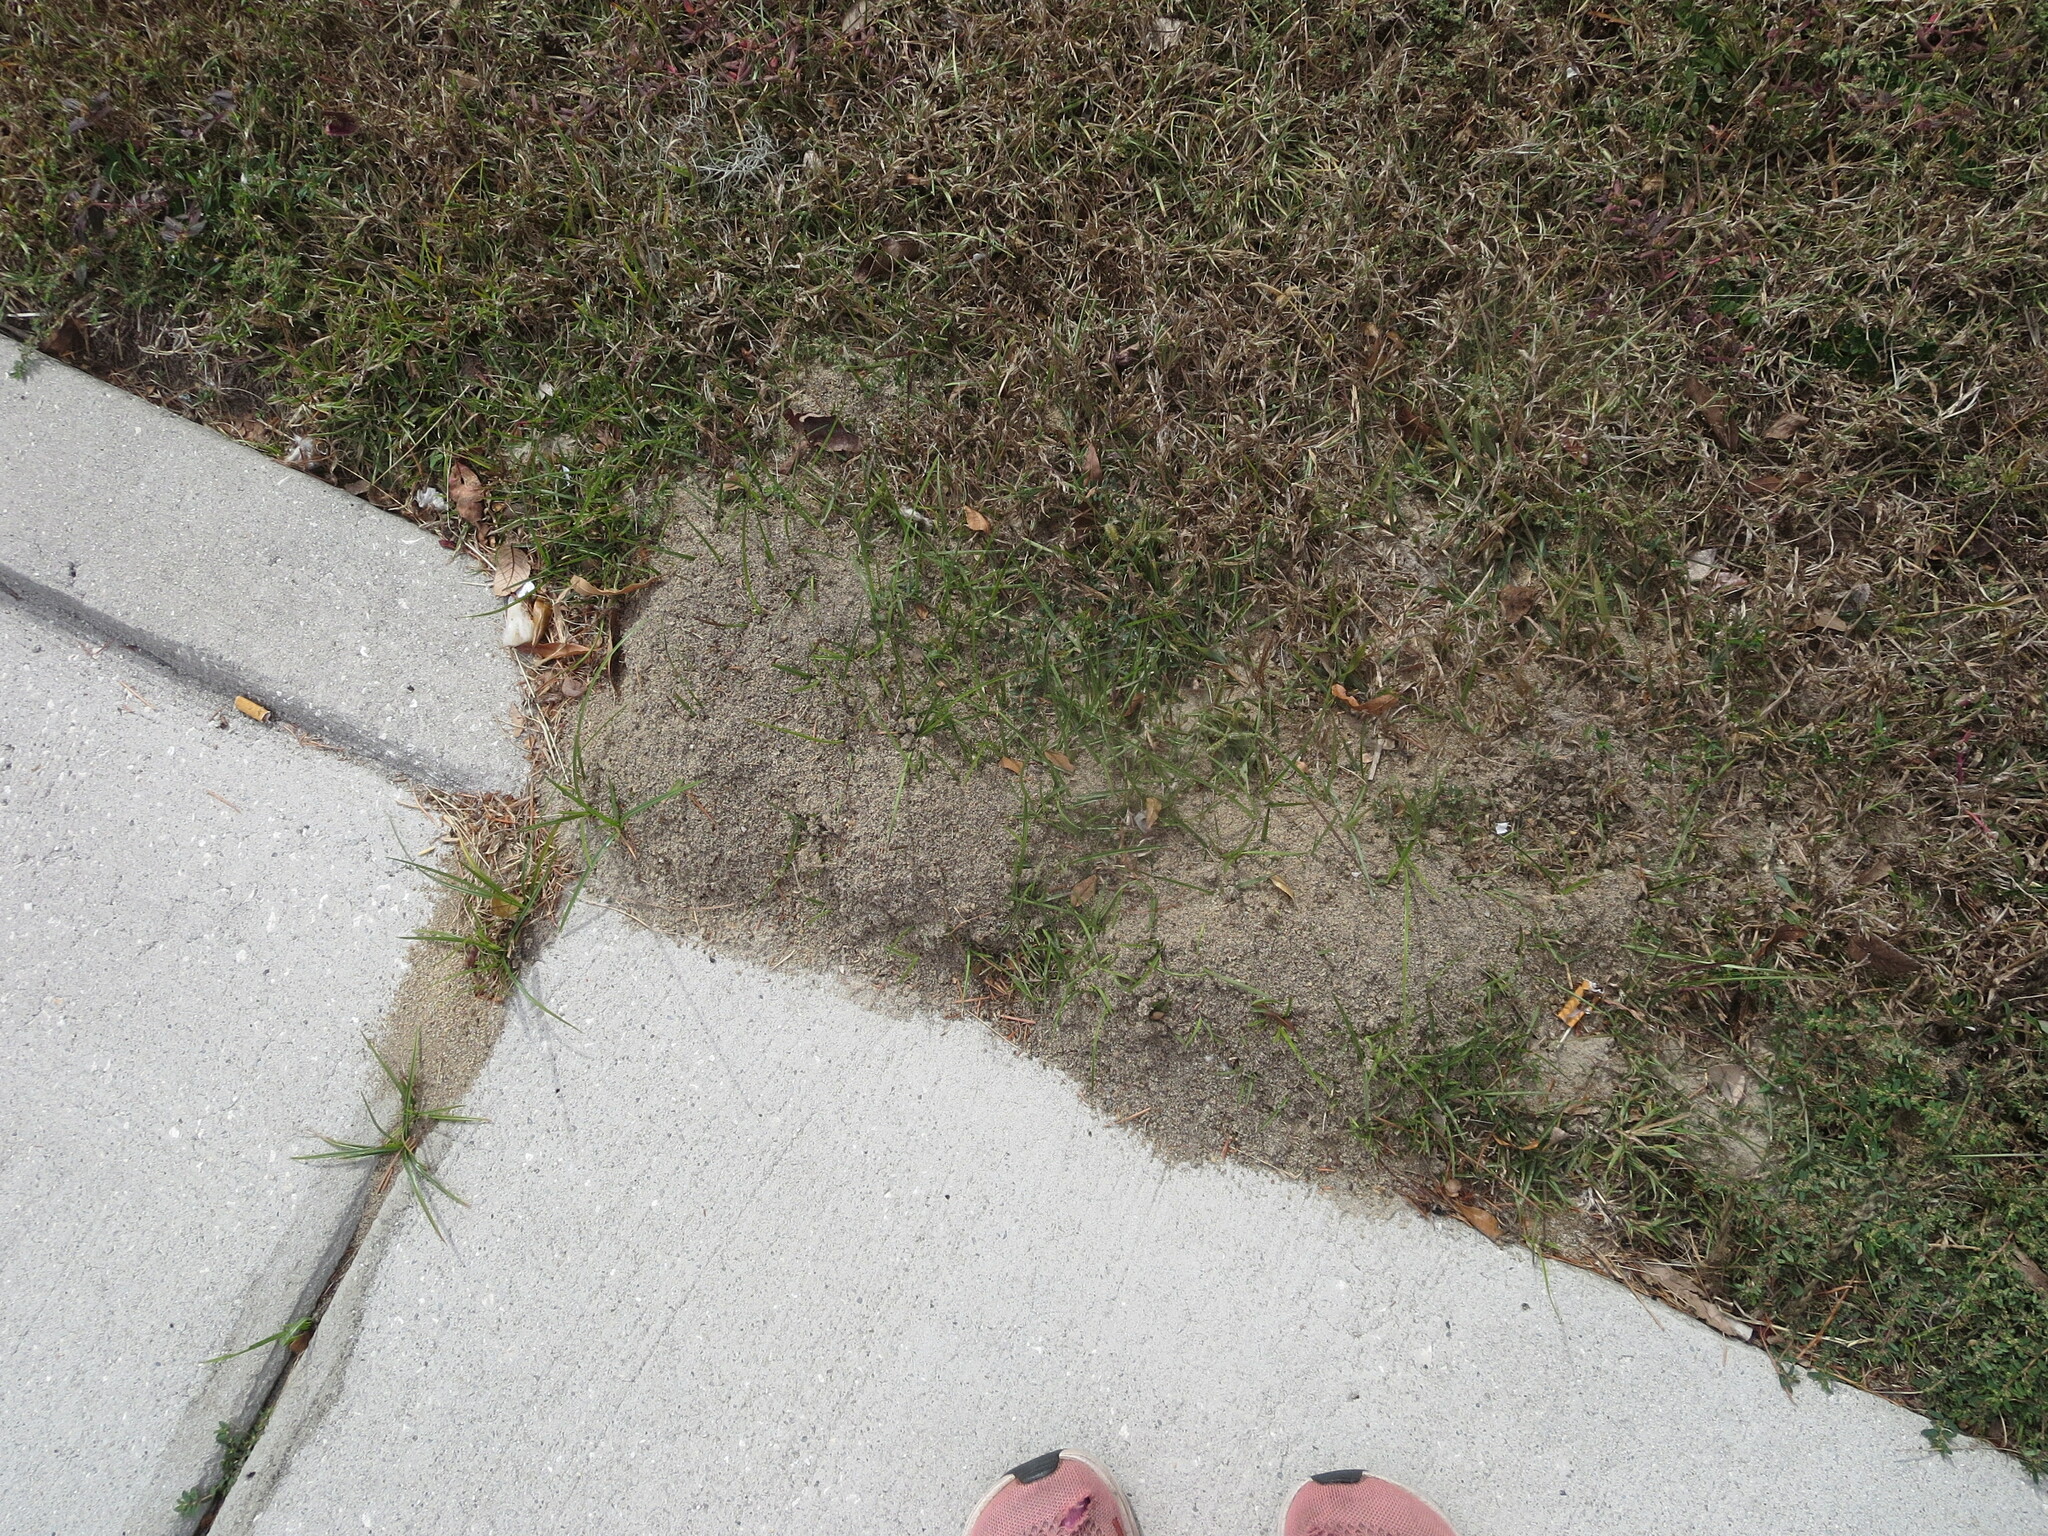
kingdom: Animalia
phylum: Arthropoda
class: Insecta
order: Hymenoptera
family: Formicidae
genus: Solenopsis
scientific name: Solenopsis invicta
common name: Red imported fire ant
